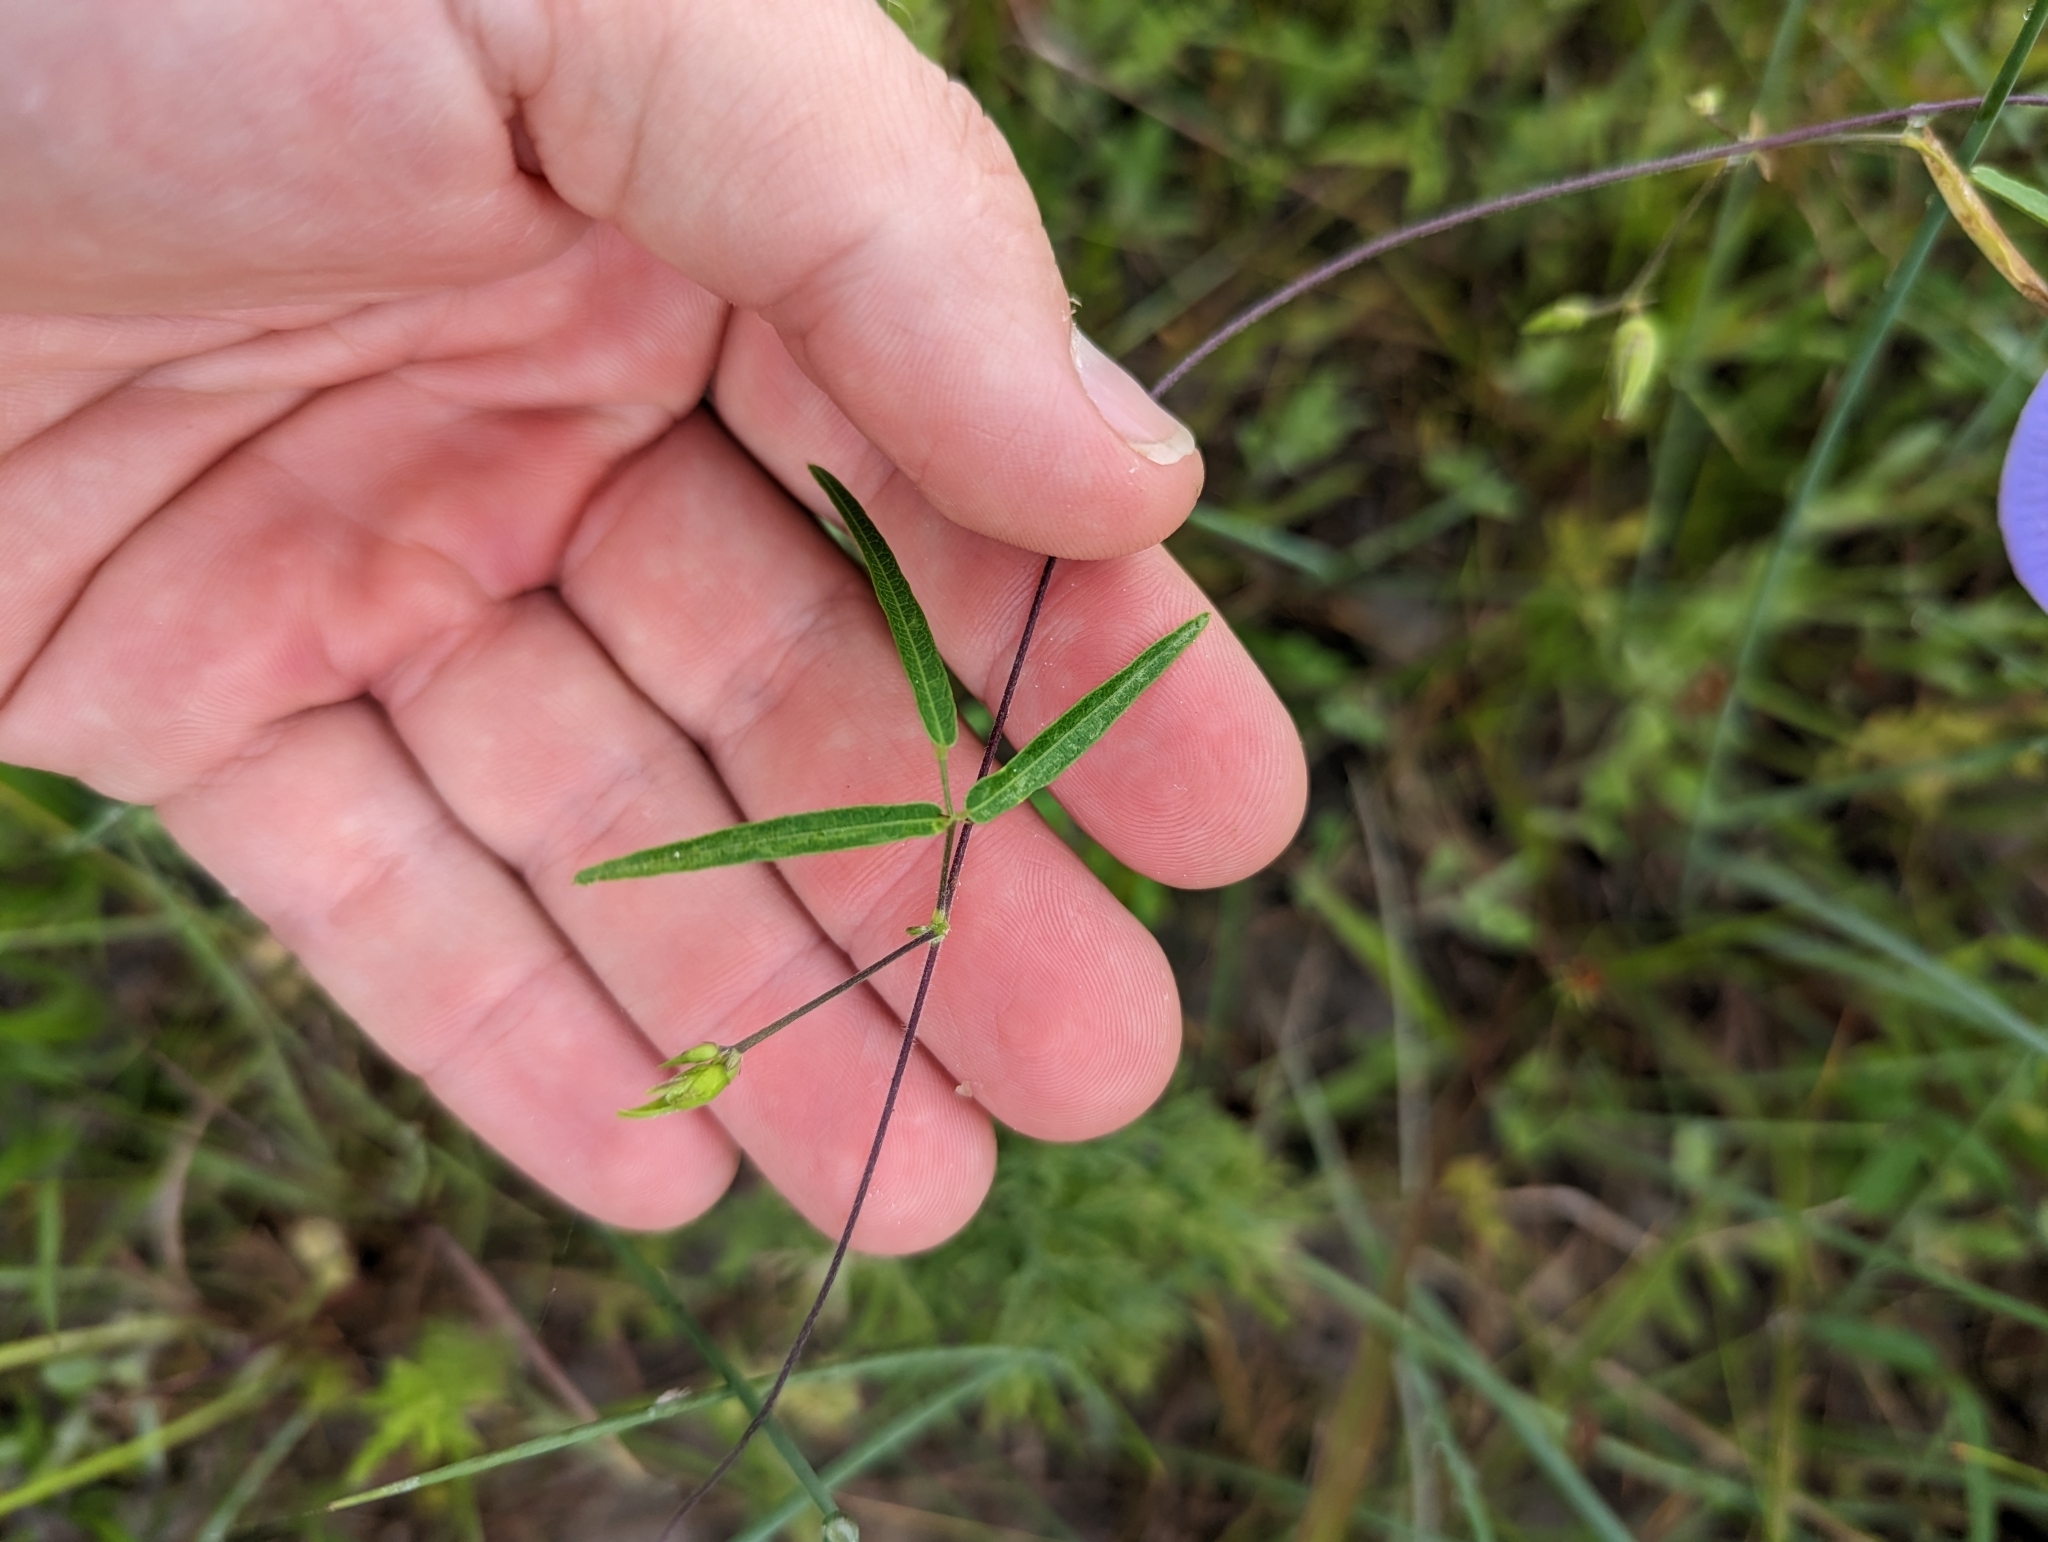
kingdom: Plantae
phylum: Tracheophyta
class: Magnoliopsida
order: Fabales
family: Fabaceae
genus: Centrosema
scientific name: Centrosema virginianum
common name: Butterfly-pea
